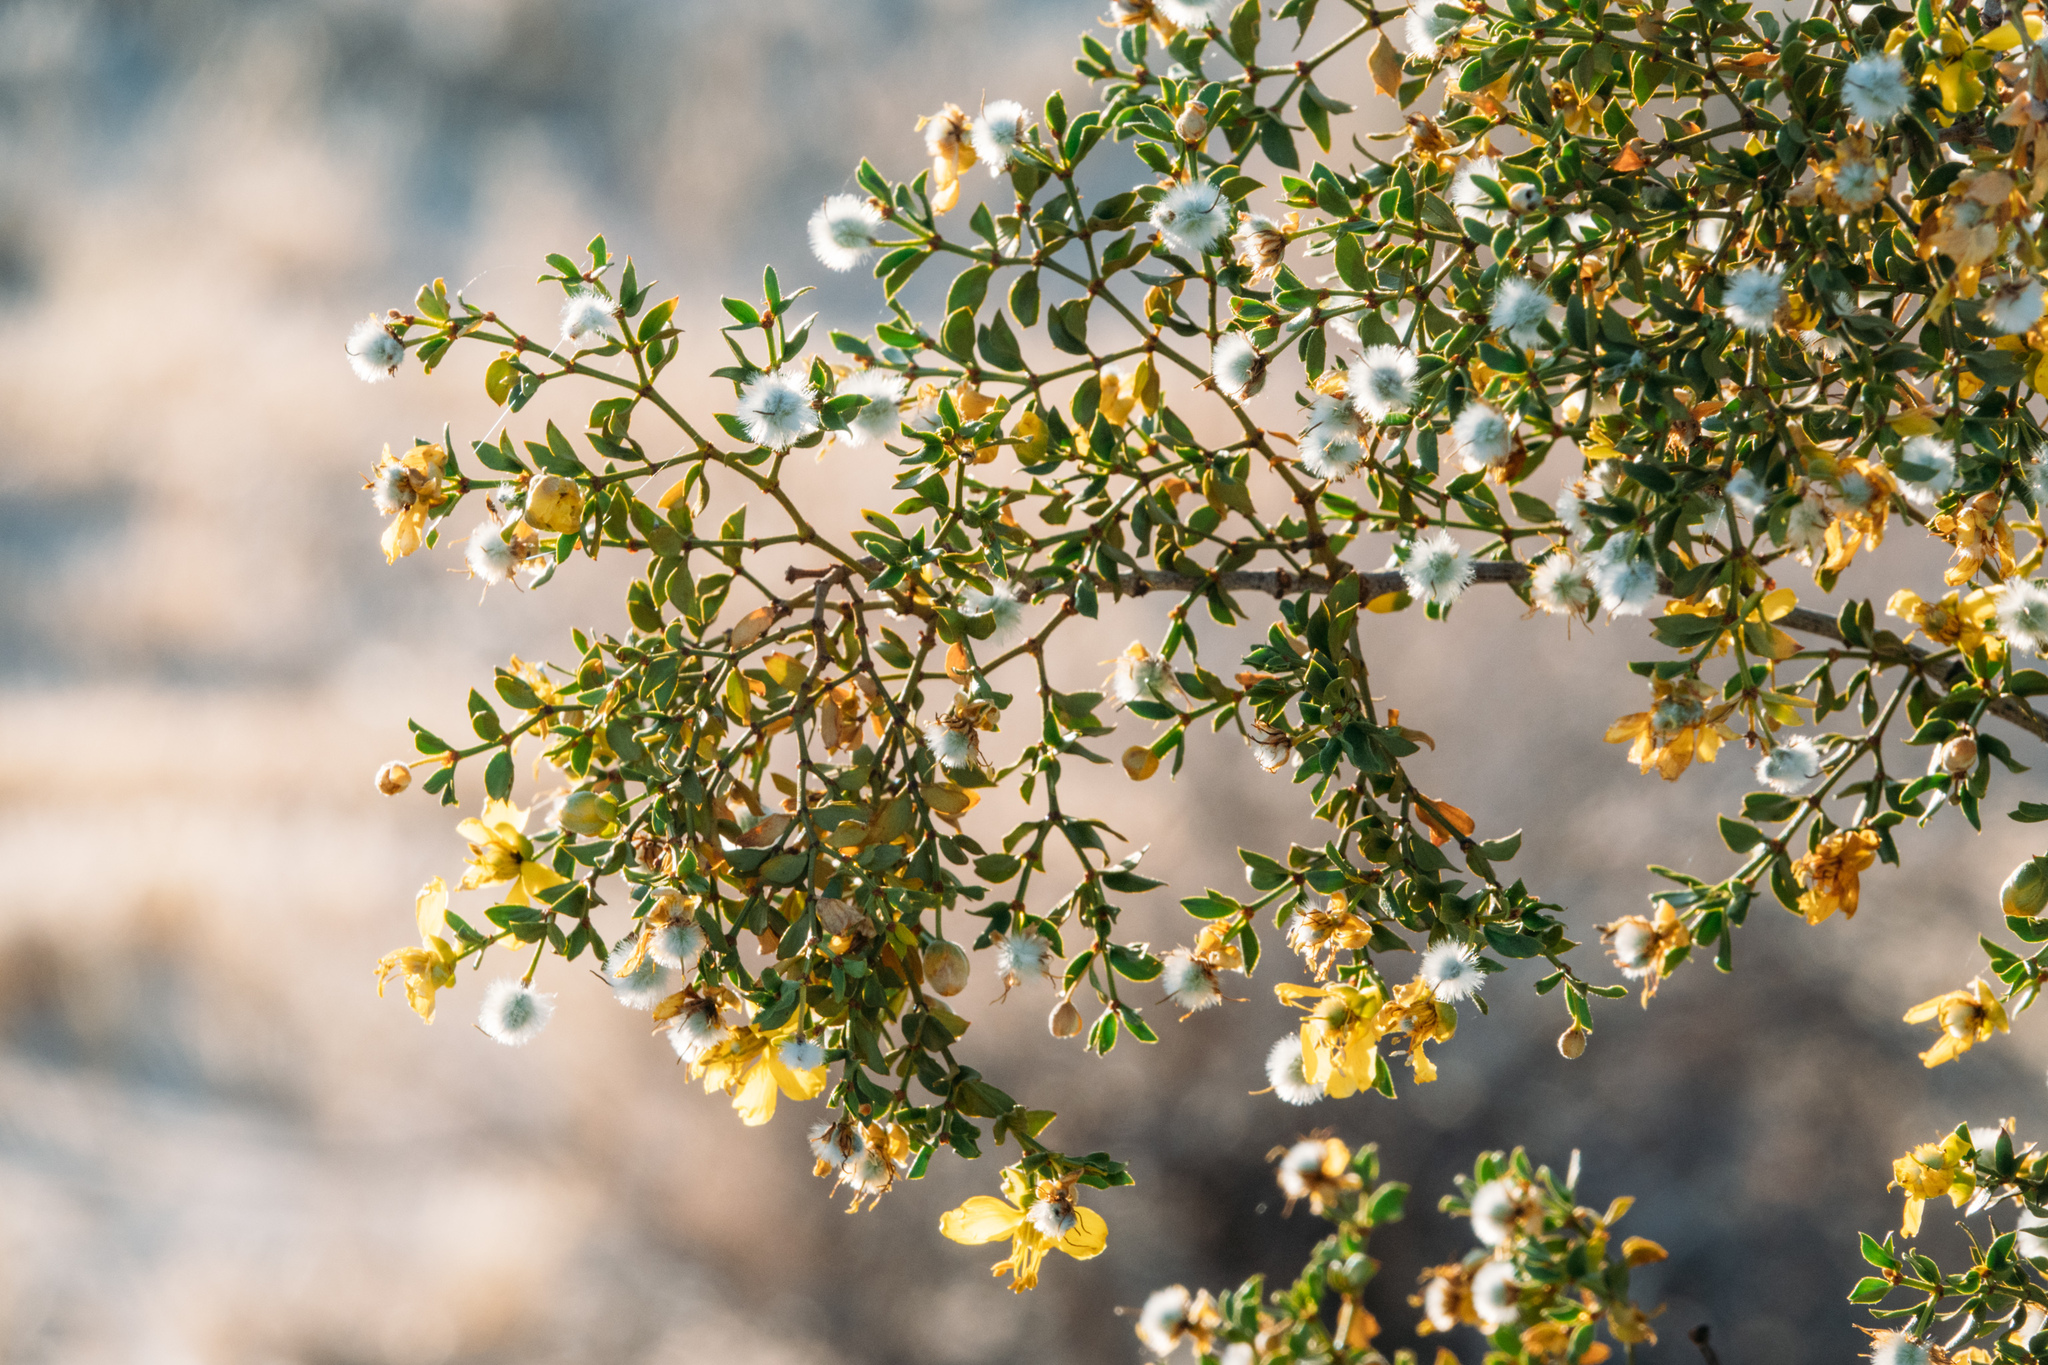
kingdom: Plantae
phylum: Tracheophyta
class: Magnoliopsida
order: Zygophyllales
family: Zygophyllaceae
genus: Larrea
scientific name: Larrea tridentata
